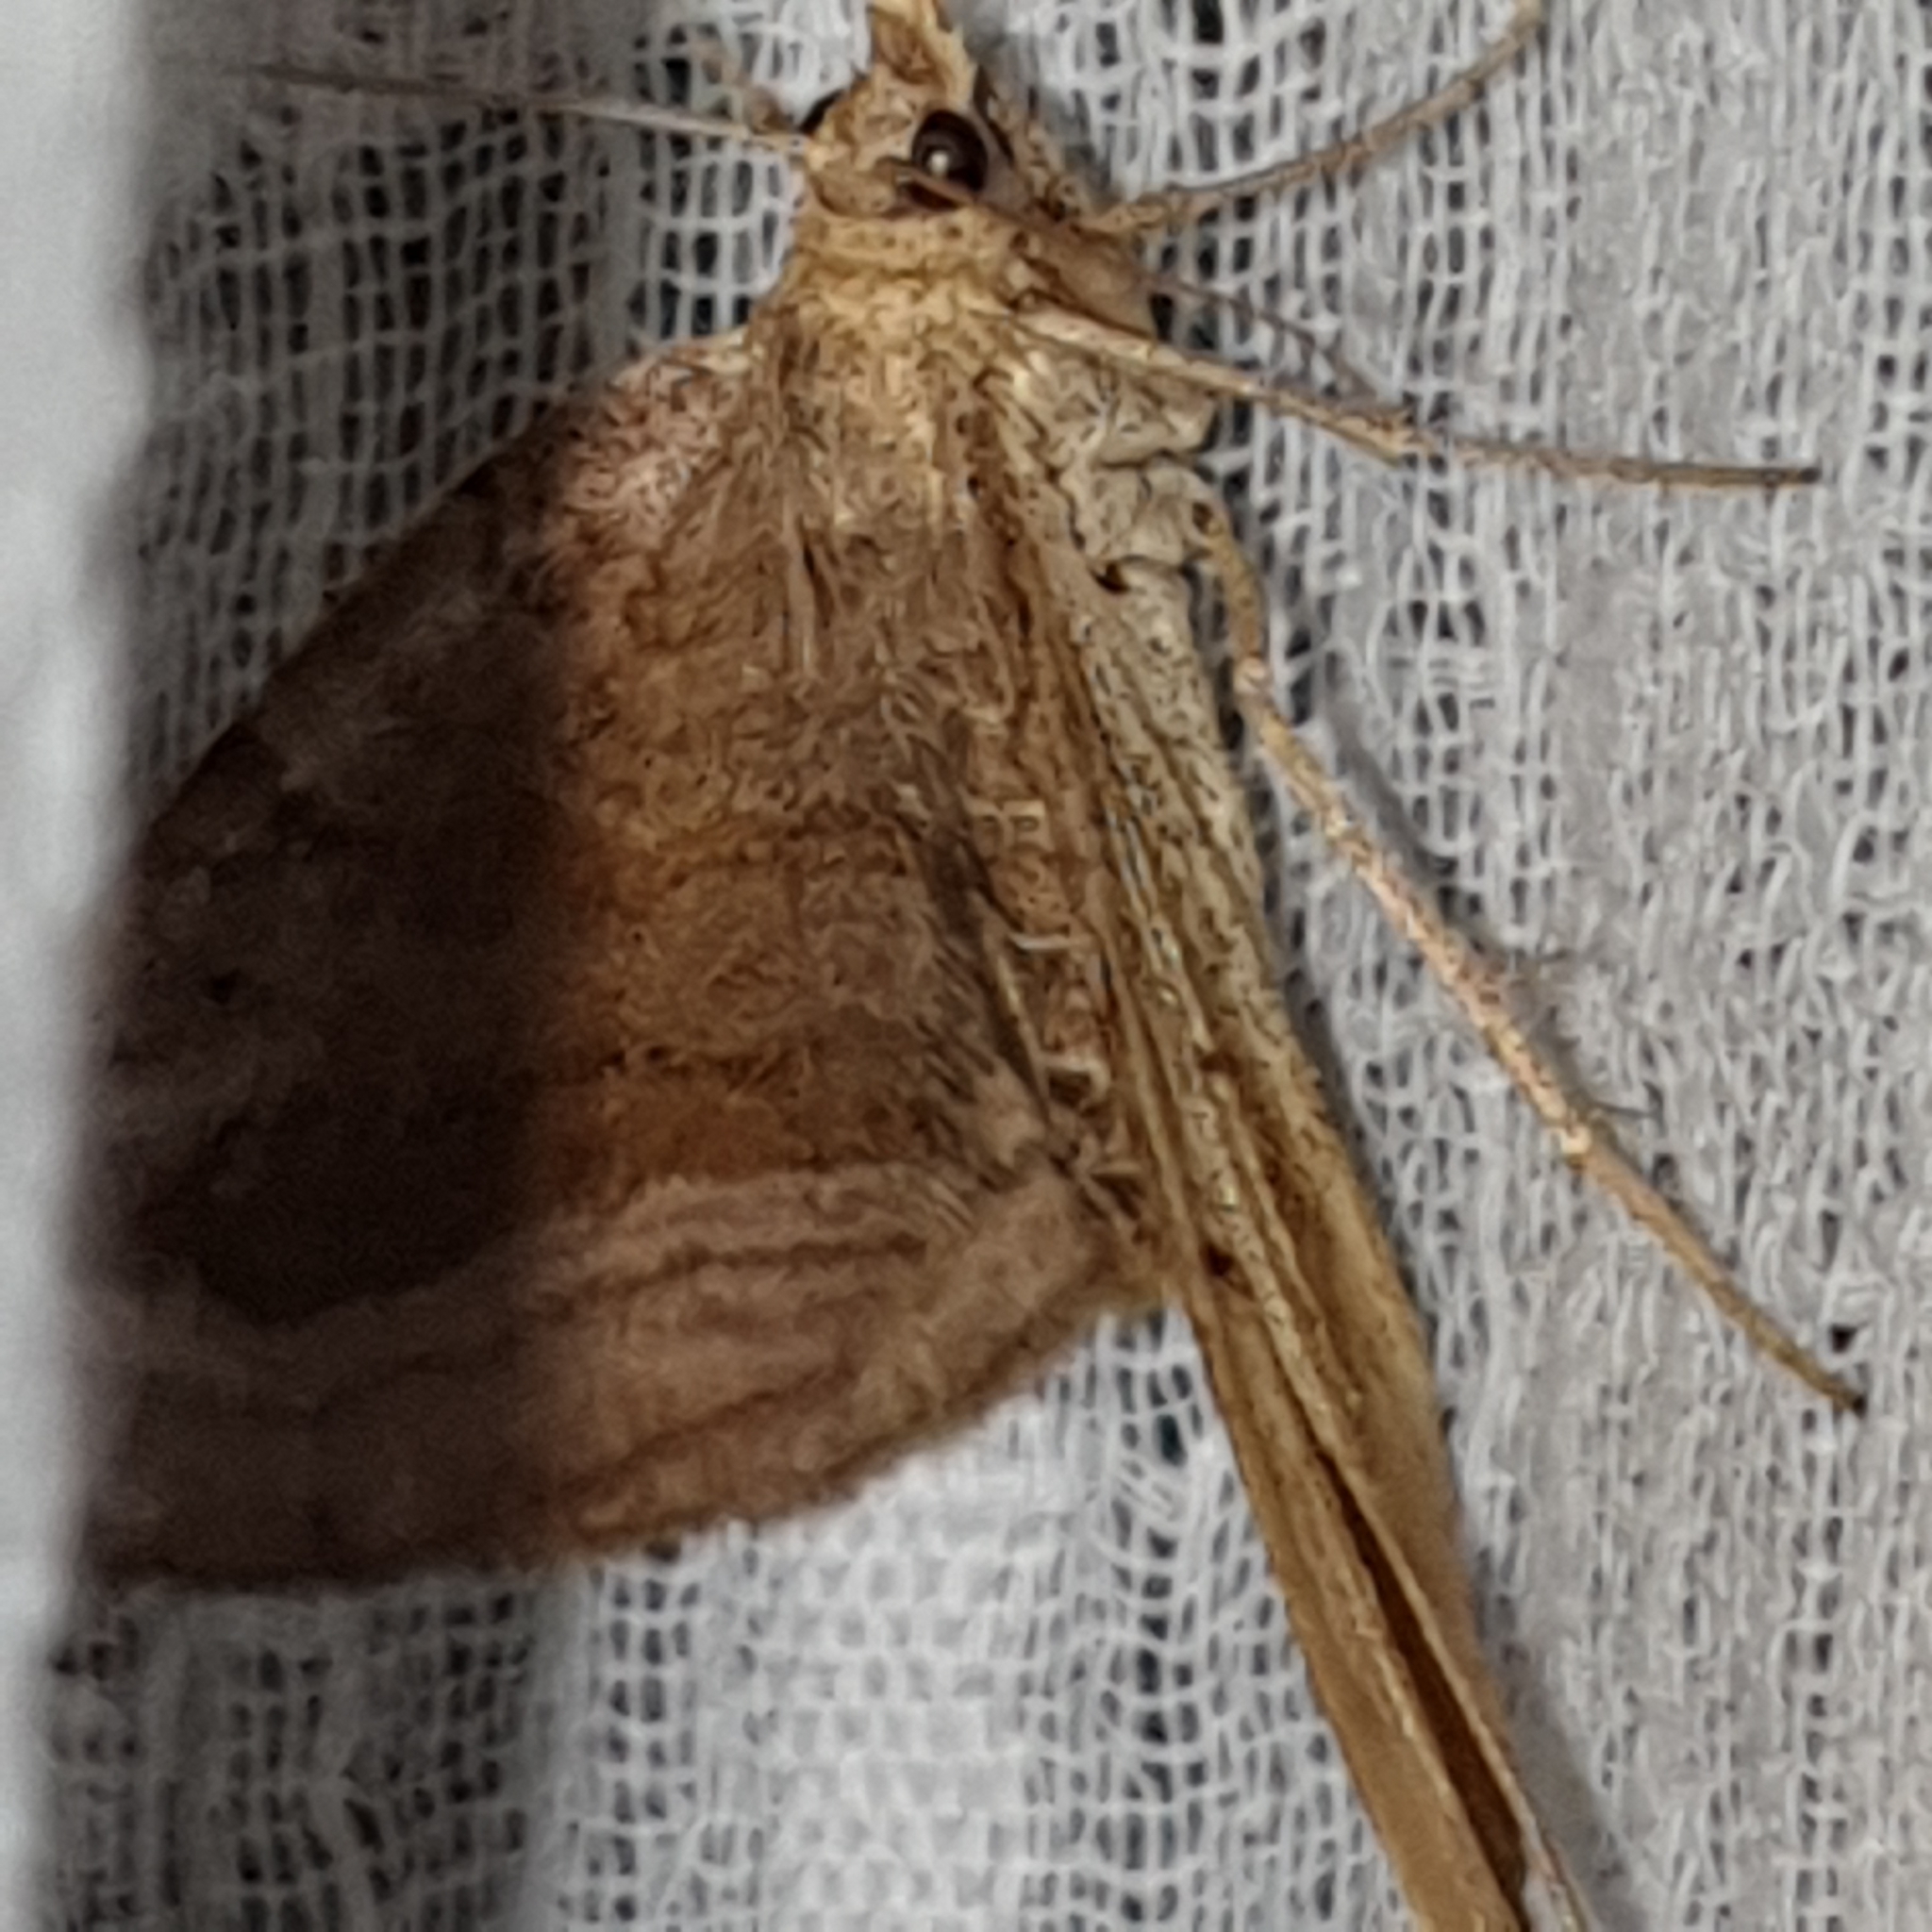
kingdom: Animalia
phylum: Arthropoda
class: Insecta
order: Lepidoptera
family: Geometridae
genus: Scotopteryx
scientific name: Scotopteryx chenopodiata
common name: Shaded broad-bar
